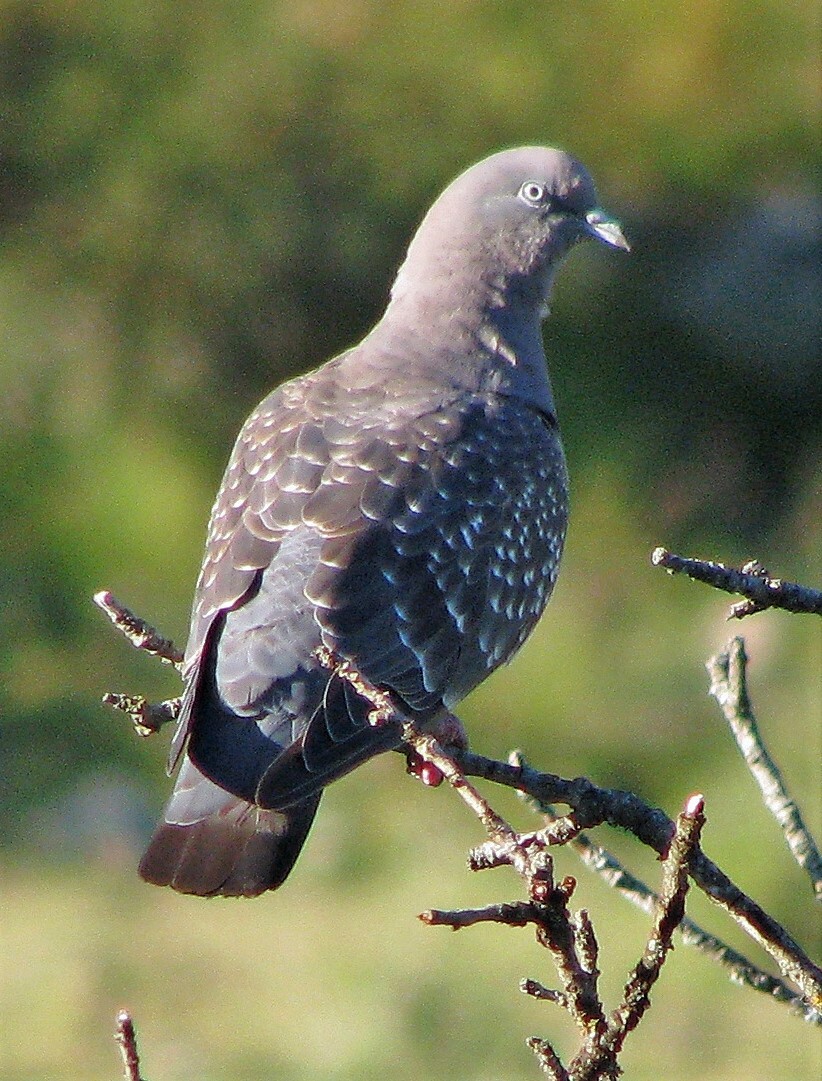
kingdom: Animalia
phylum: Chordata
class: Aves
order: Columbiformes
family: Columbidae
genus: Patagioenas
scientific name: Patagioenas maculosa
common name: Spot-winged pigeon
